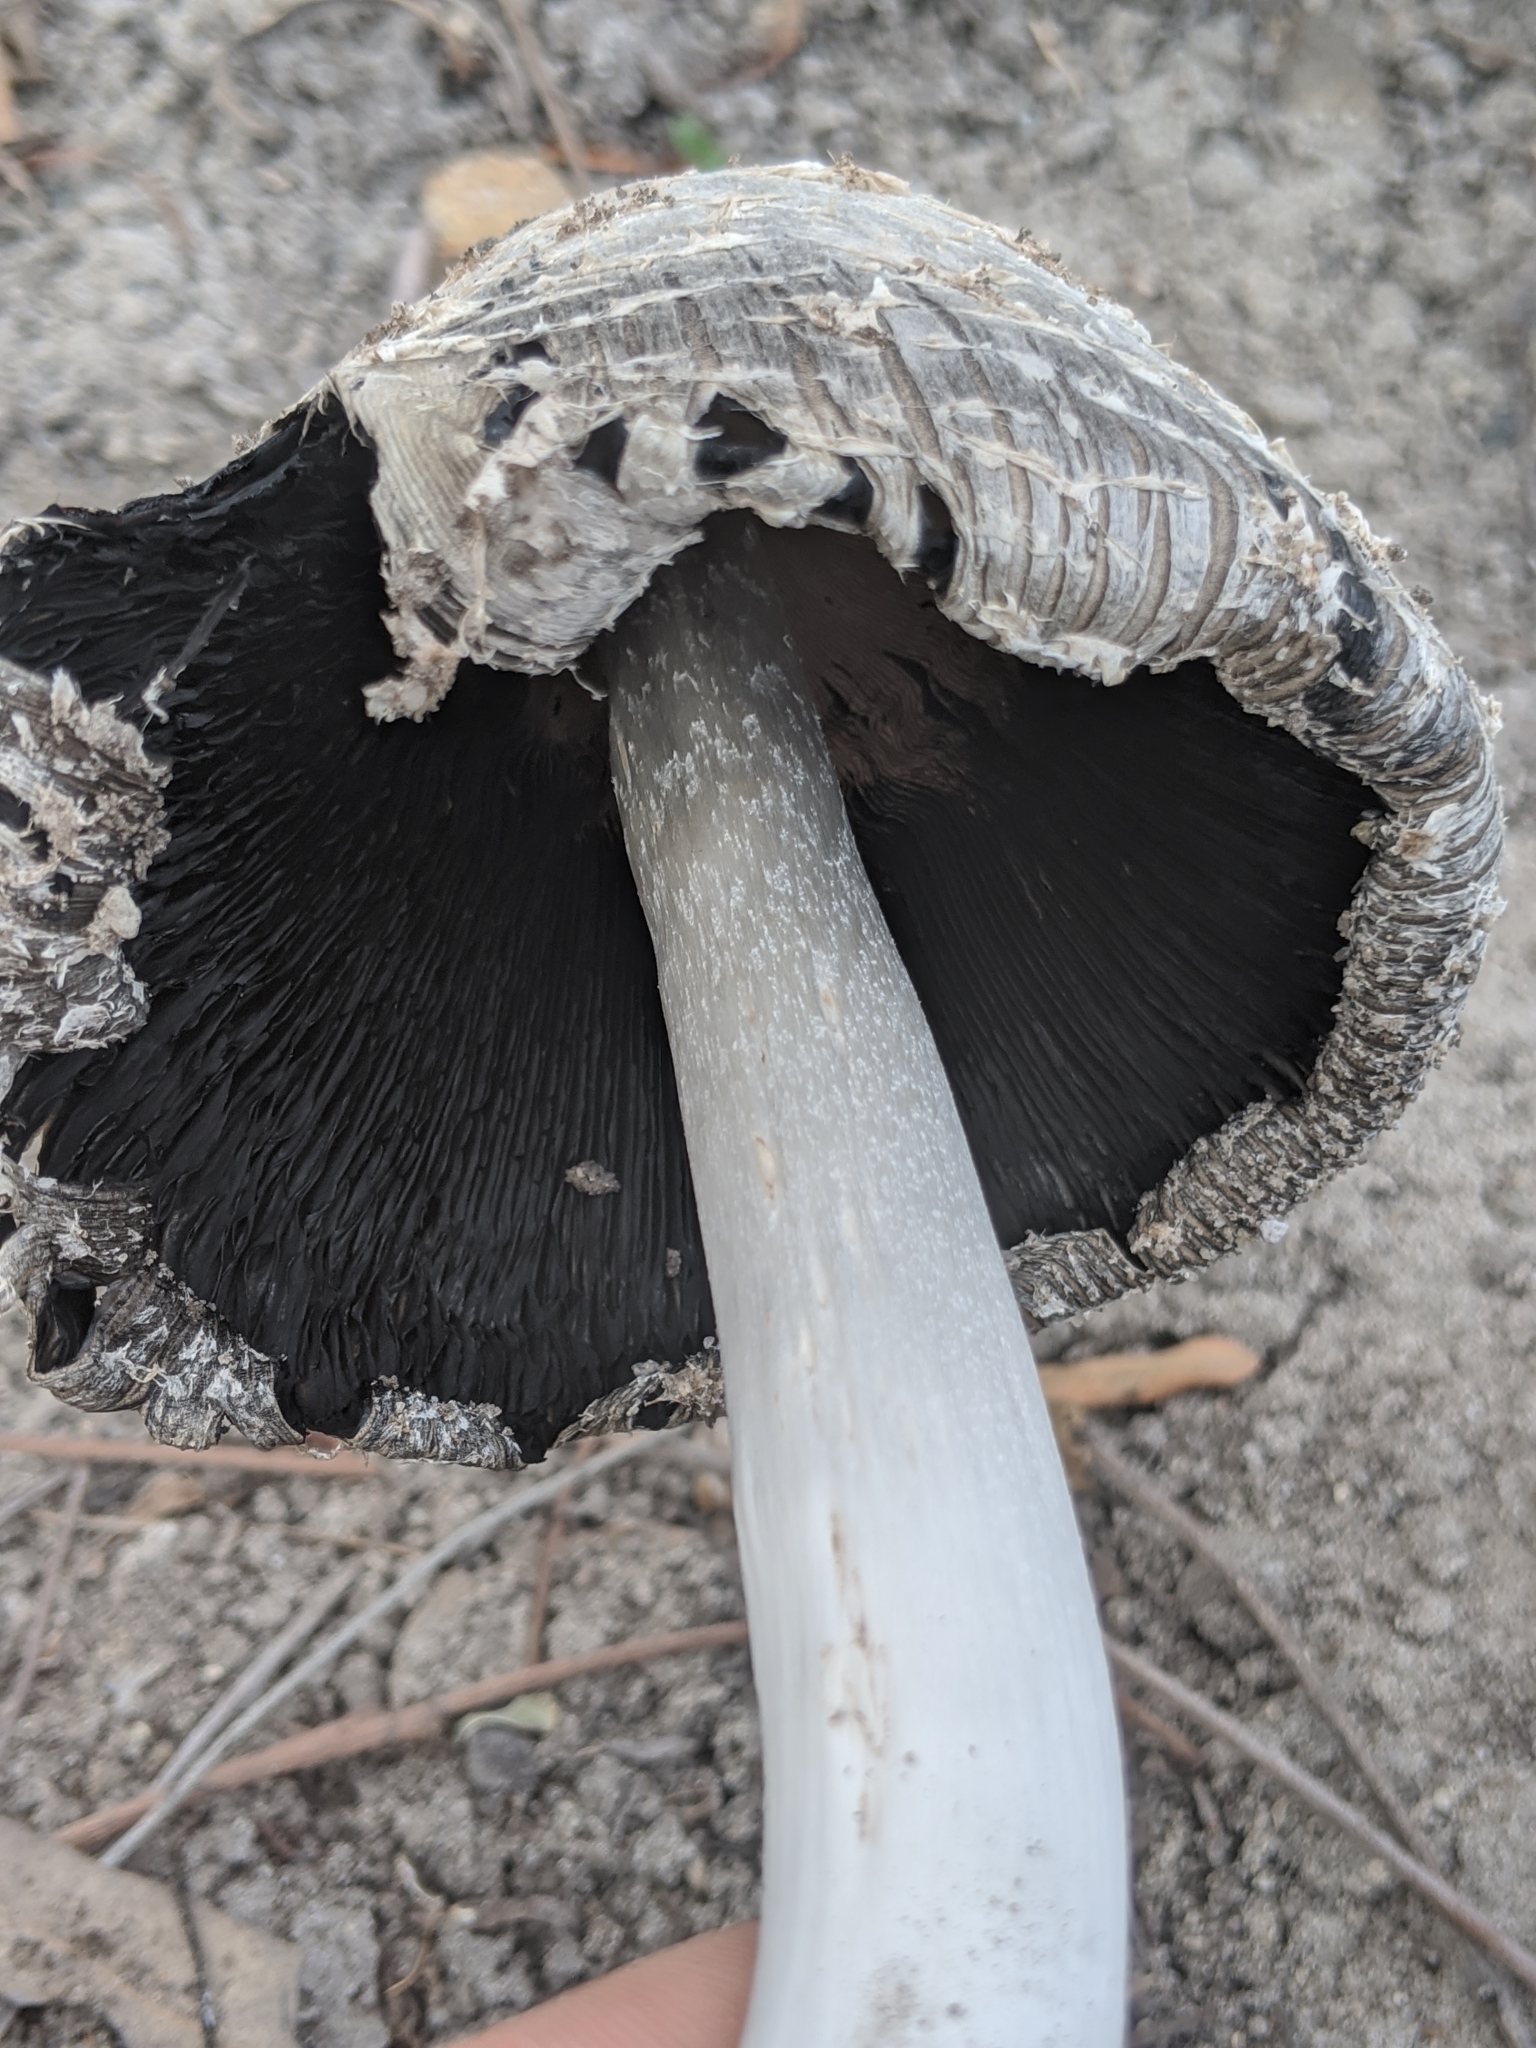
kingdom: Fungi
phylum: Basidiomycota
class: Agaricomycetes
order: Agaricales
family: Agaricaceae
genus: Coprinus
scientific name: Coprinus comatus
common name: Lawyer's wig
